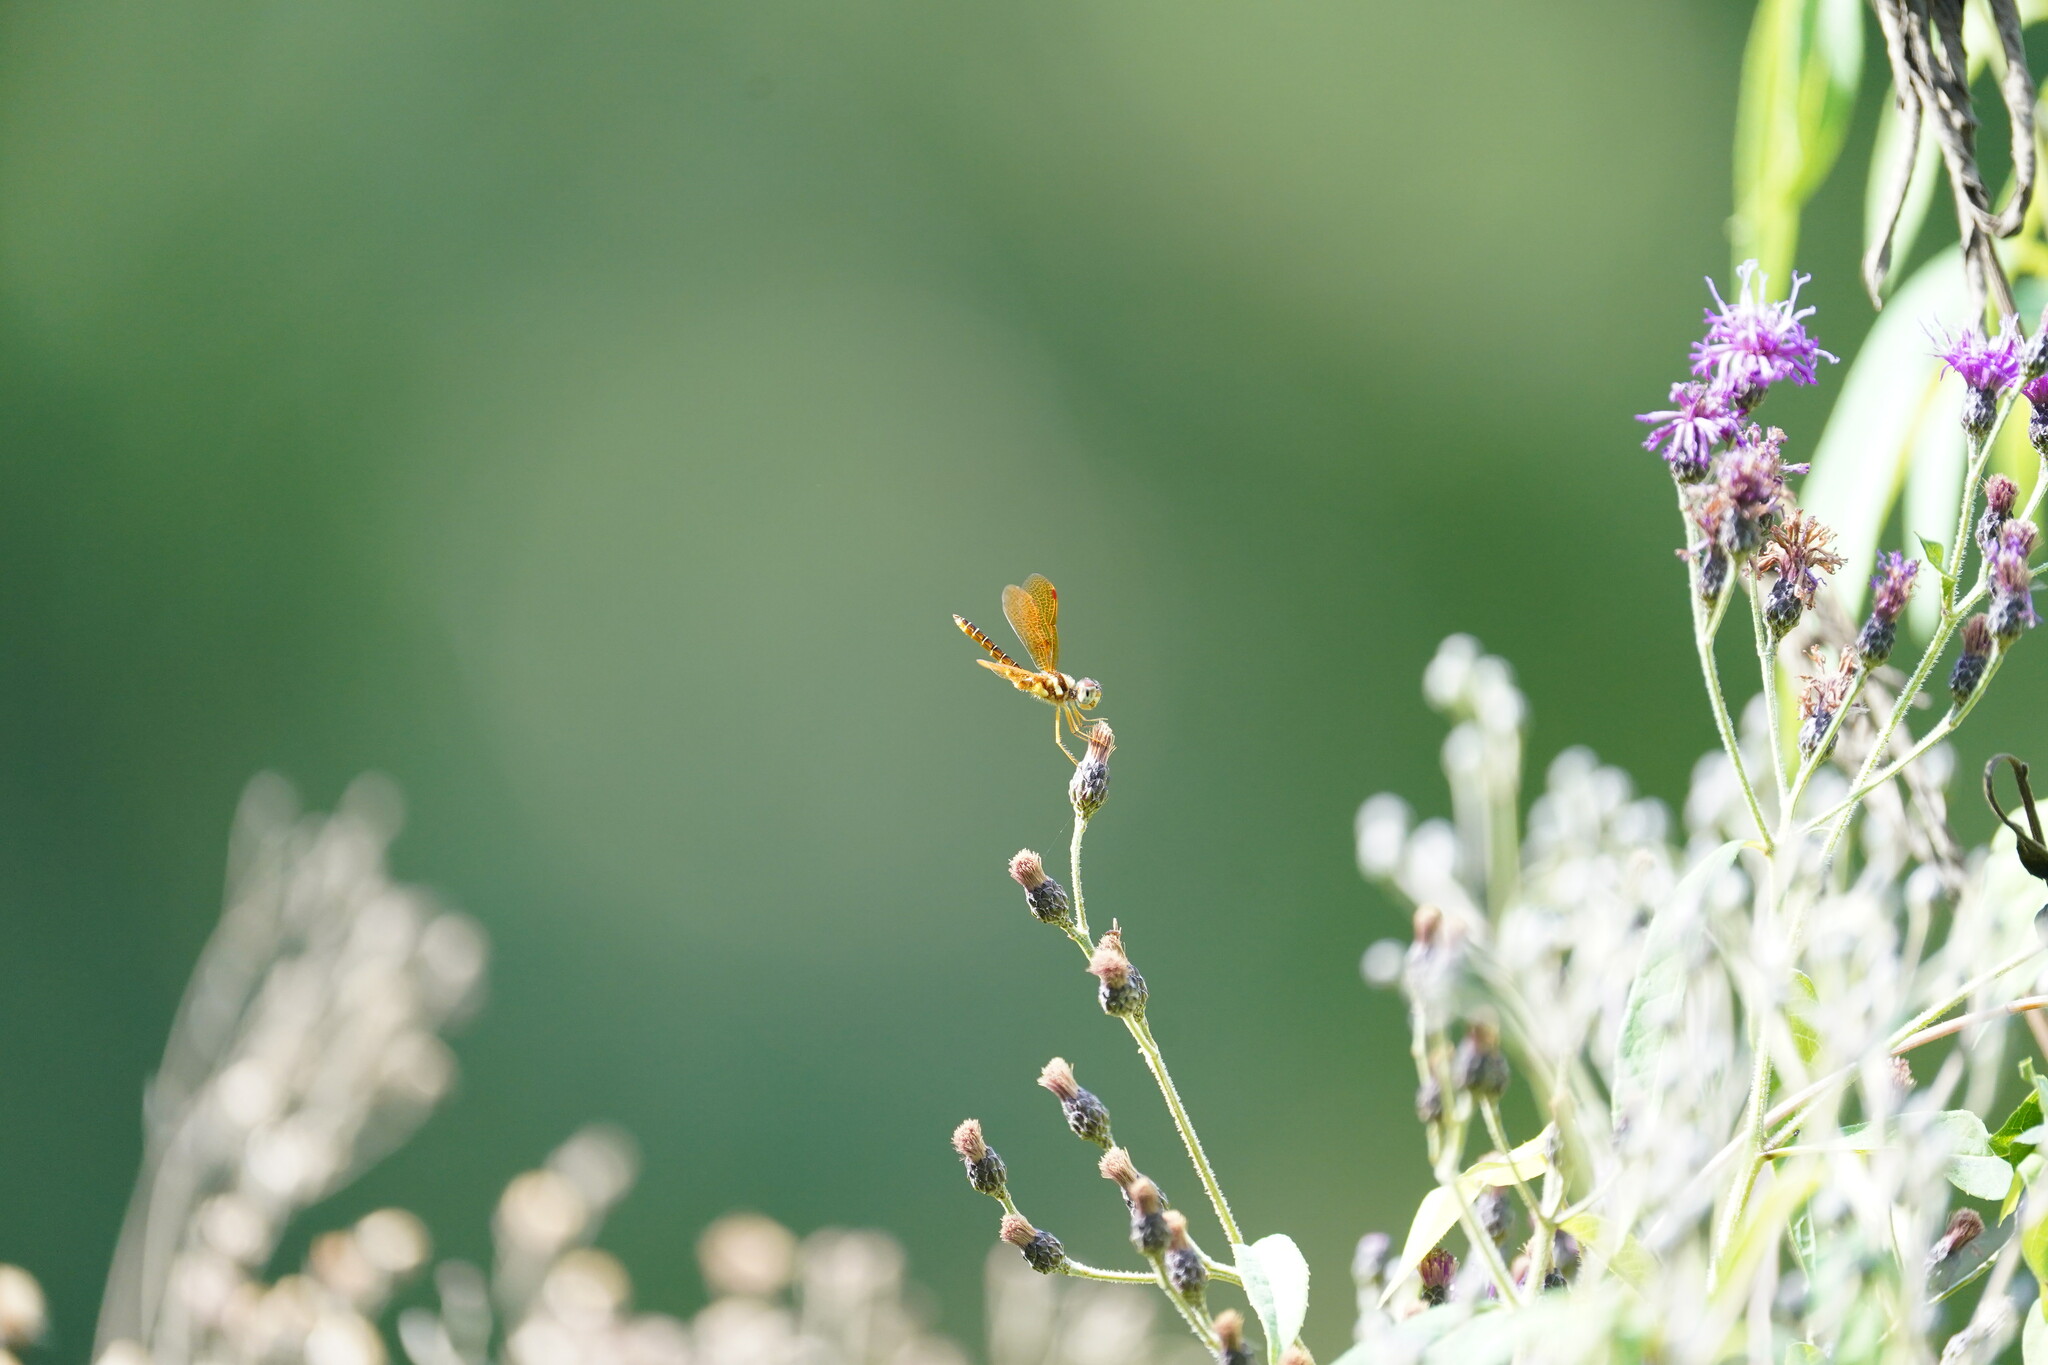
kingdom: Animalia
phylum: Arthropoda
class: Insecta
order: Odonata
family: Libellulidae
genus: Perithemis
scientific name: Perithemis tenera
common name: Eastern amberwing
